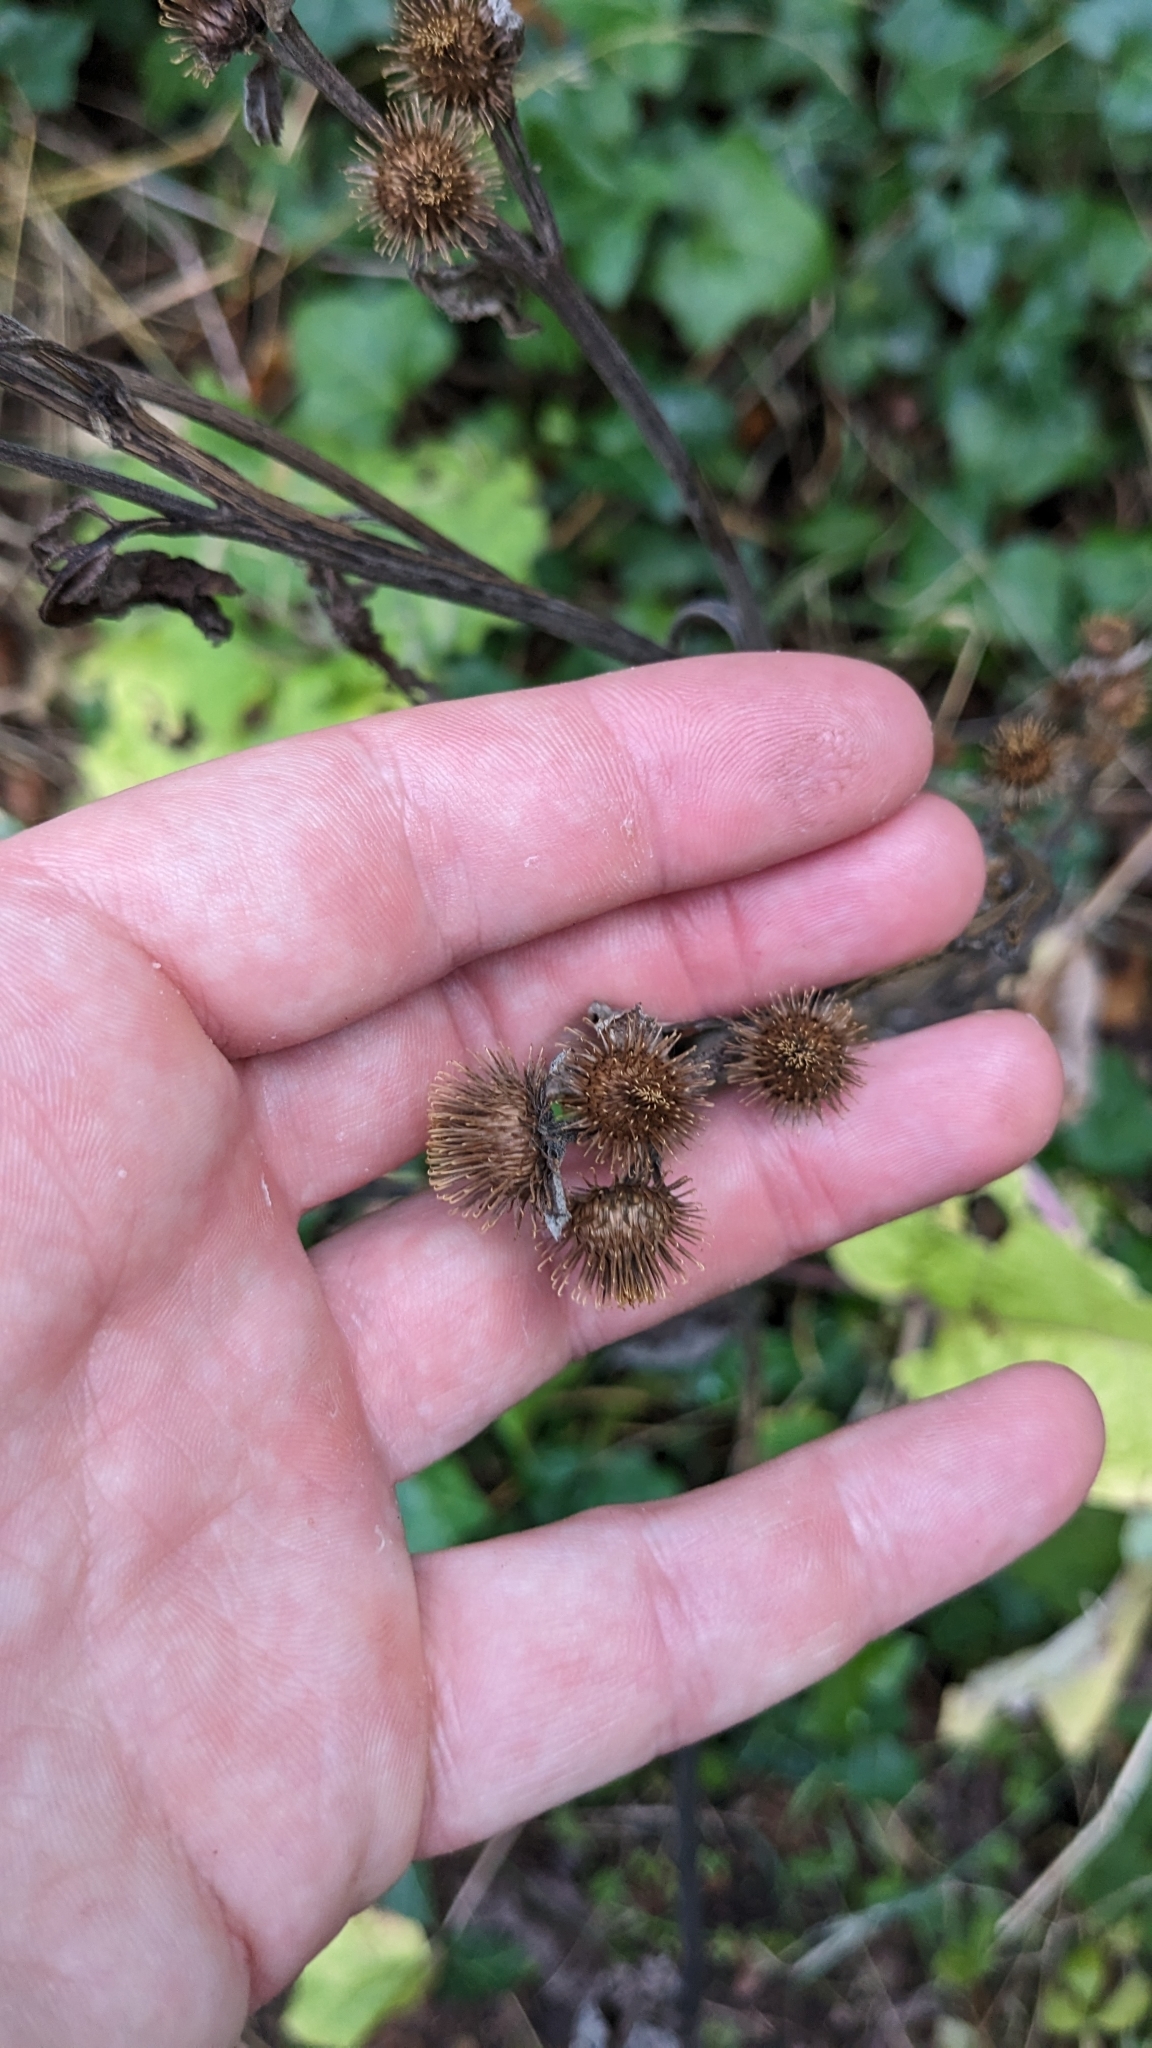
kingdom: Plantae
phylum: Tracheophyta
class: Magnoliopsida
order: Asterales
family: Asteraceae
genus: Arctium
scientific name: Arctium minus
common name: Lesser burdock
